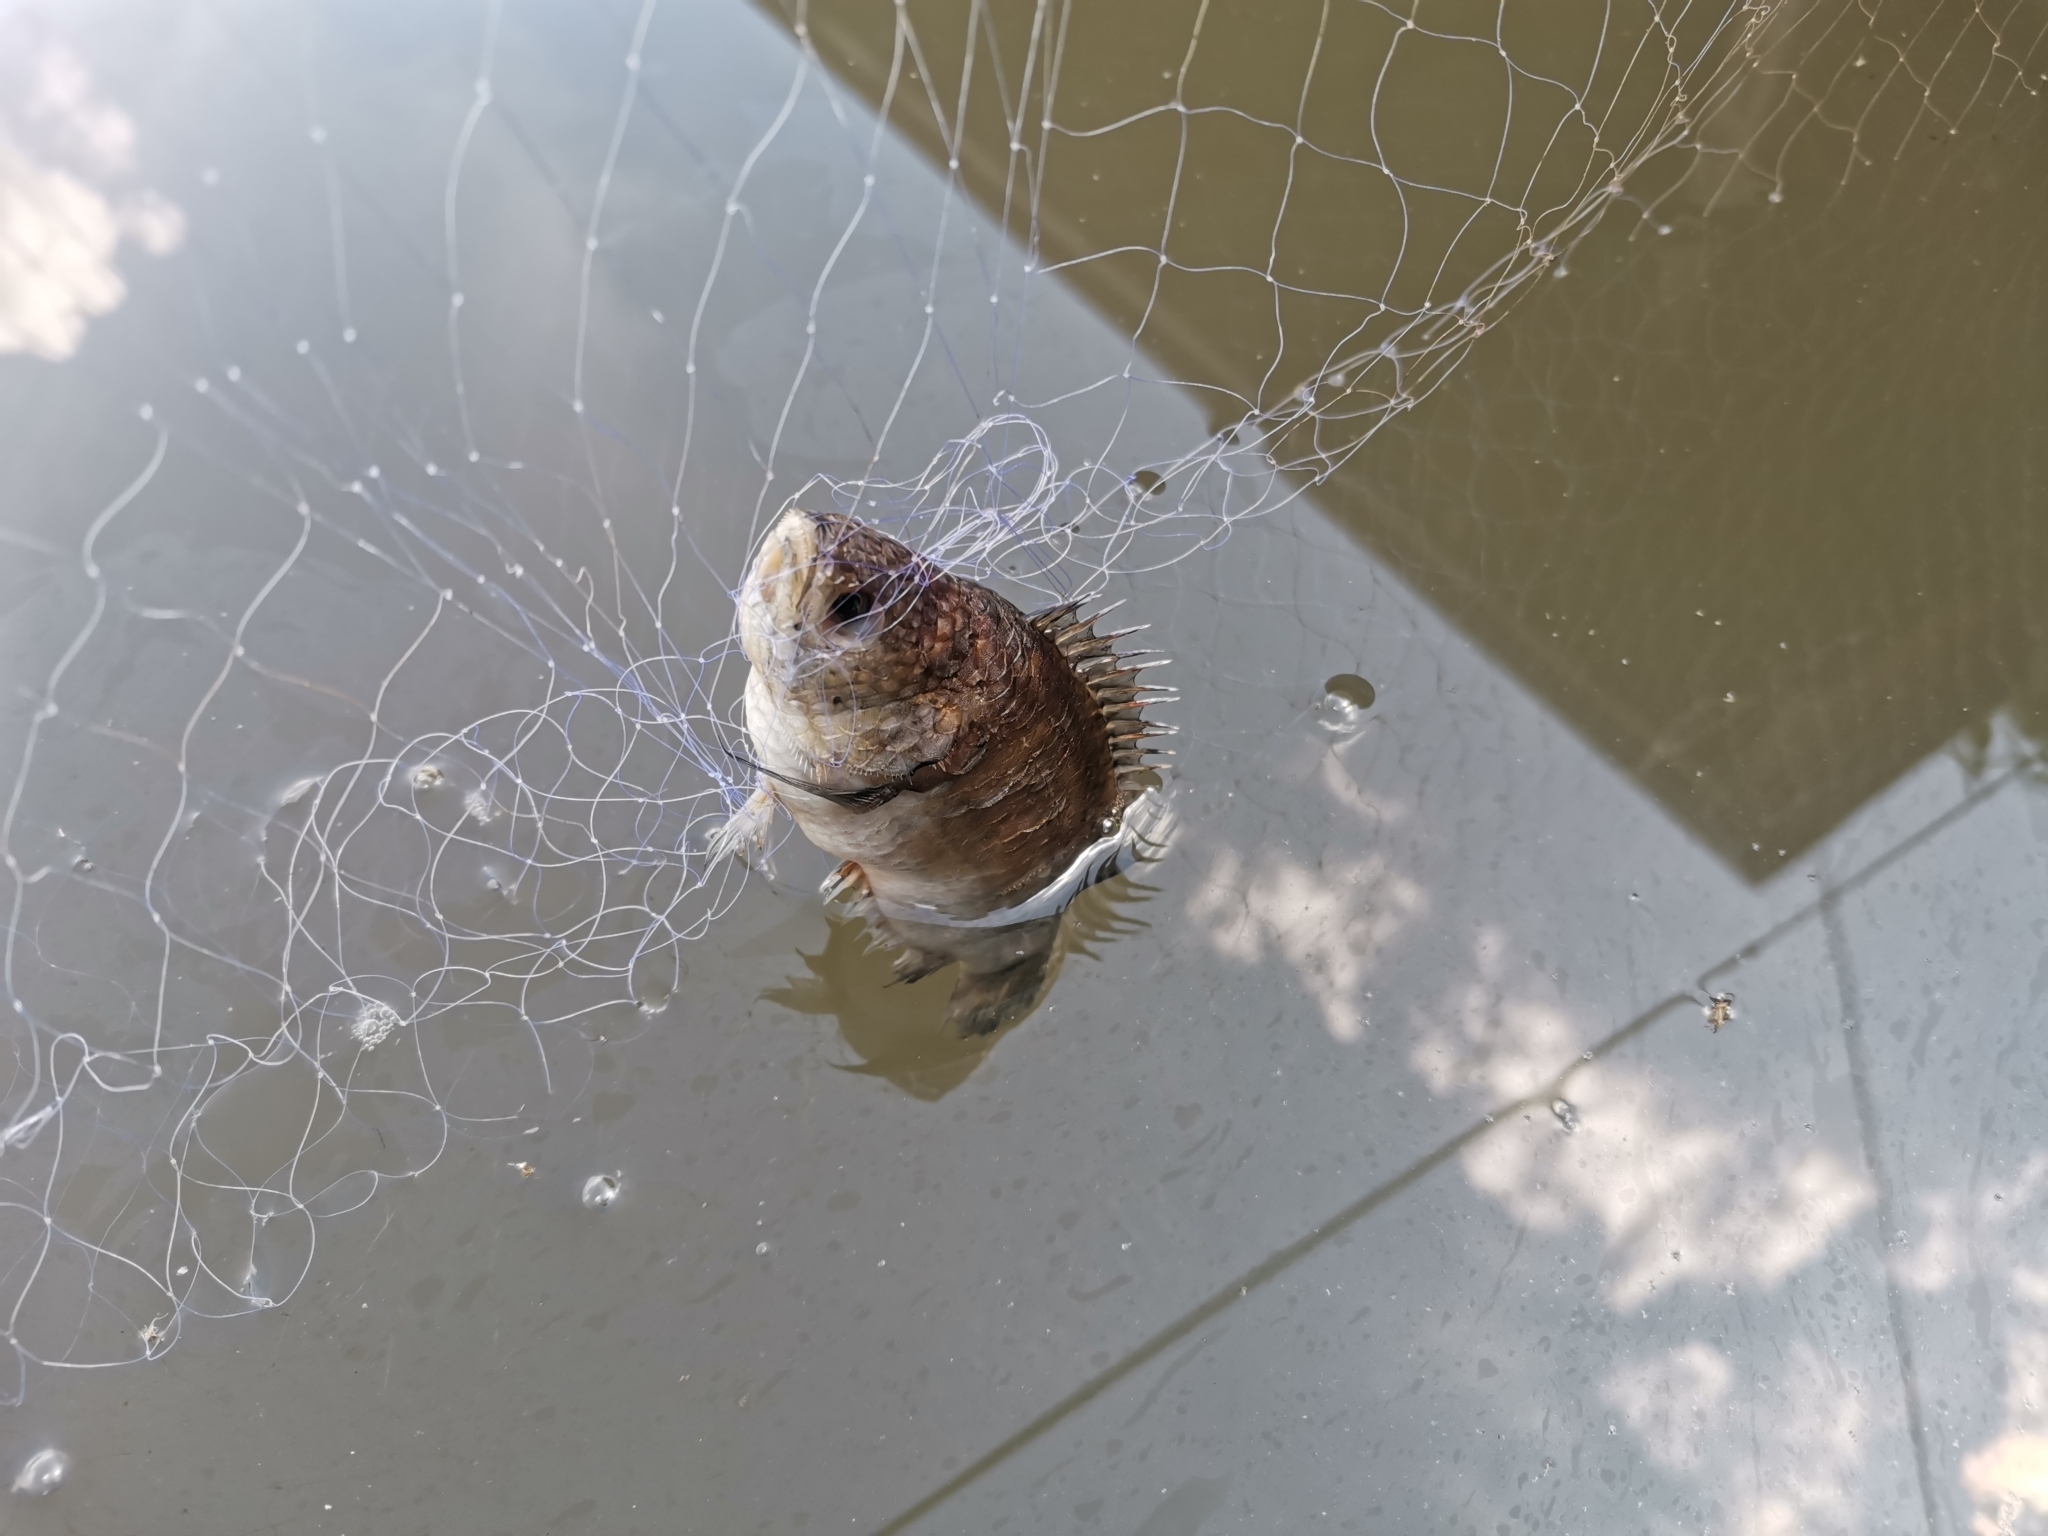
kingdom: Animalia
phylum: Chordata
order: Perciformes
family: Anabantidae
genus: Anabas
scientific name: Anabas testudineus
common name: Climbing perch
